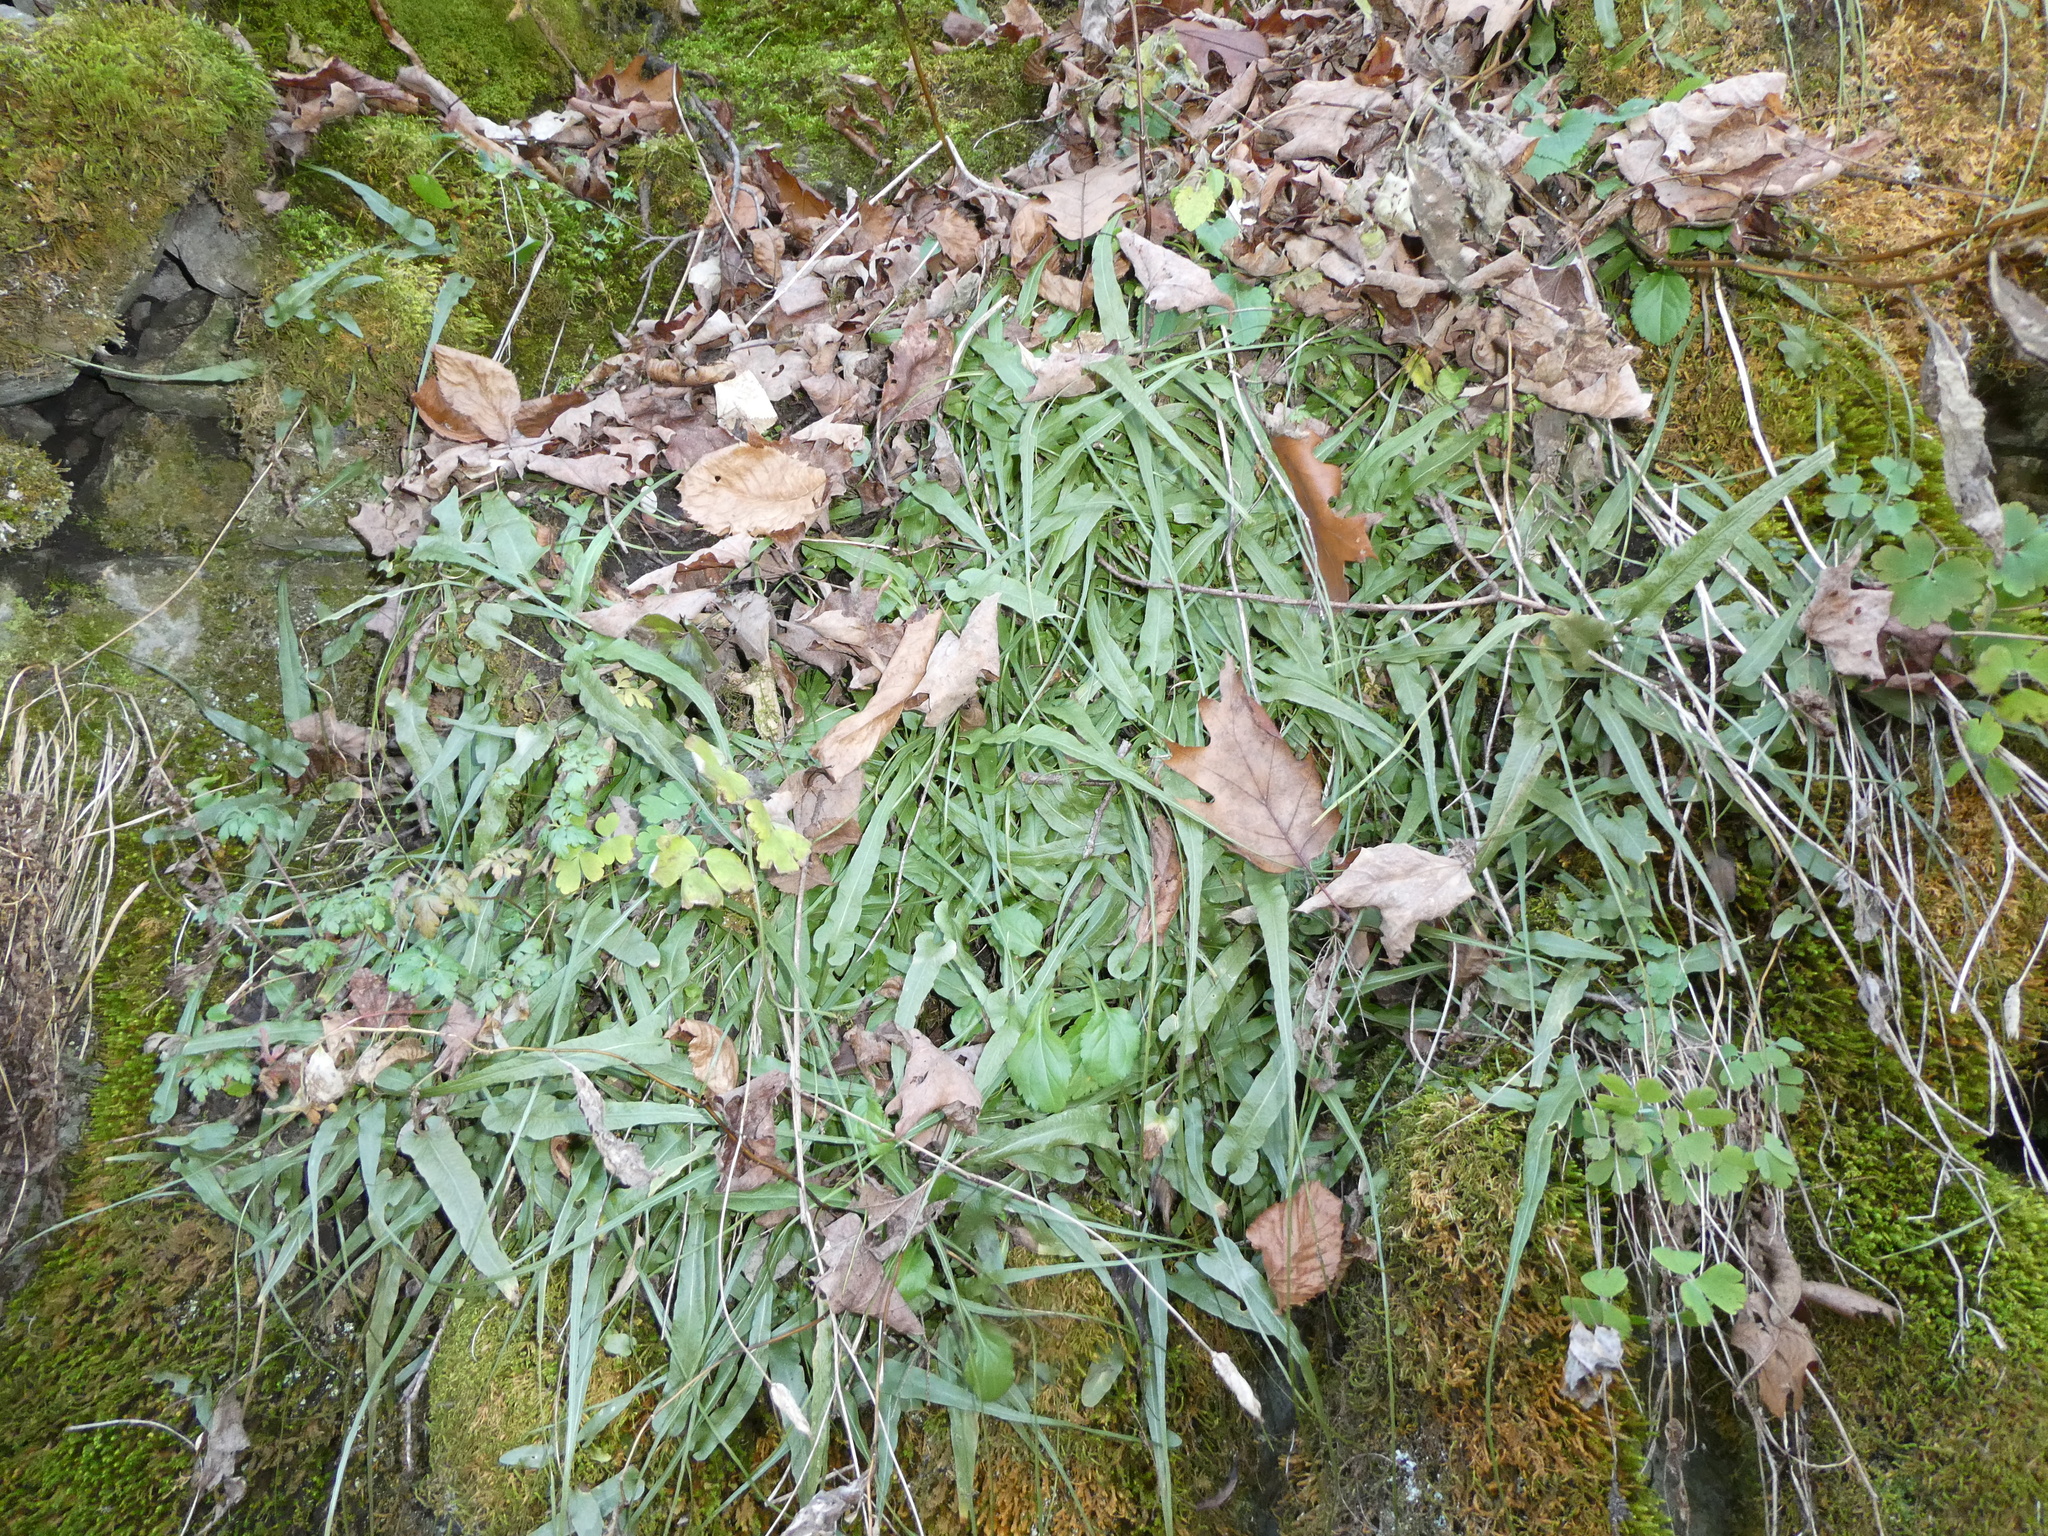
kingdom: Plantae
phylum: Tracheophyta
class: Polypodiopsida
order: Polypodiales
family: Aspleniaceae
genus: Asplenium
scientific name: Asplenium rhizophyllum
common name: Walking fern
